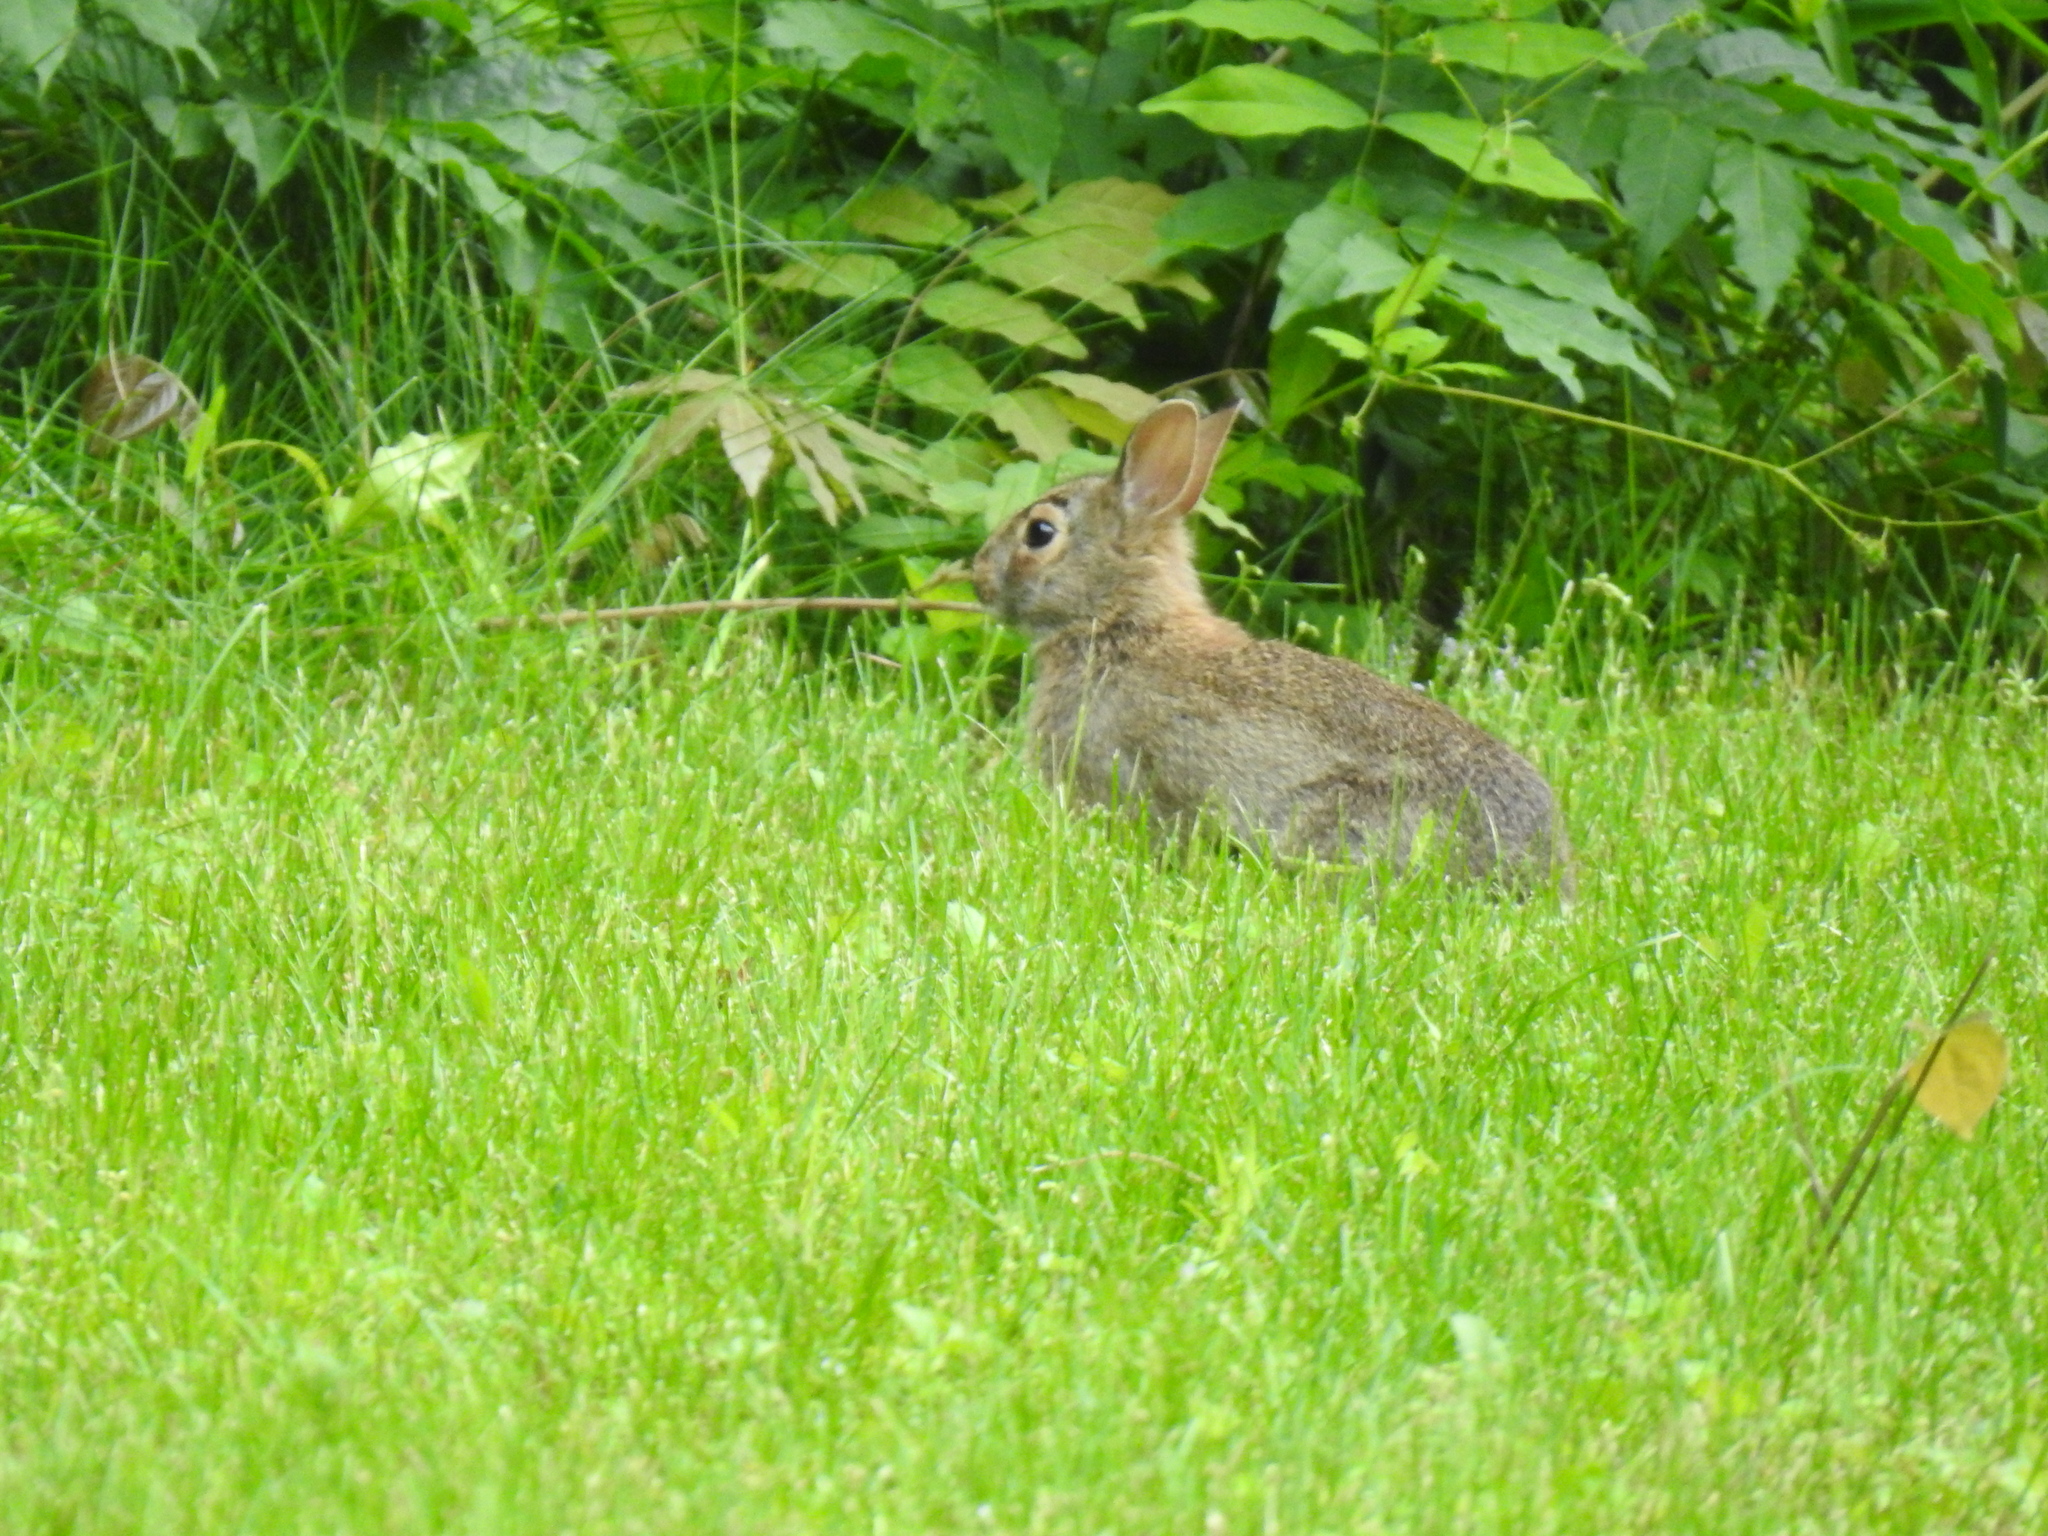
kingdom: Animalia
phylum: Chordata
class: Mammalia
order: Lagomorpha
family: Leporidae
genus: Sylvilagus
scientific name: Sylvilagus floridanus
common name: Eastern cottontail
